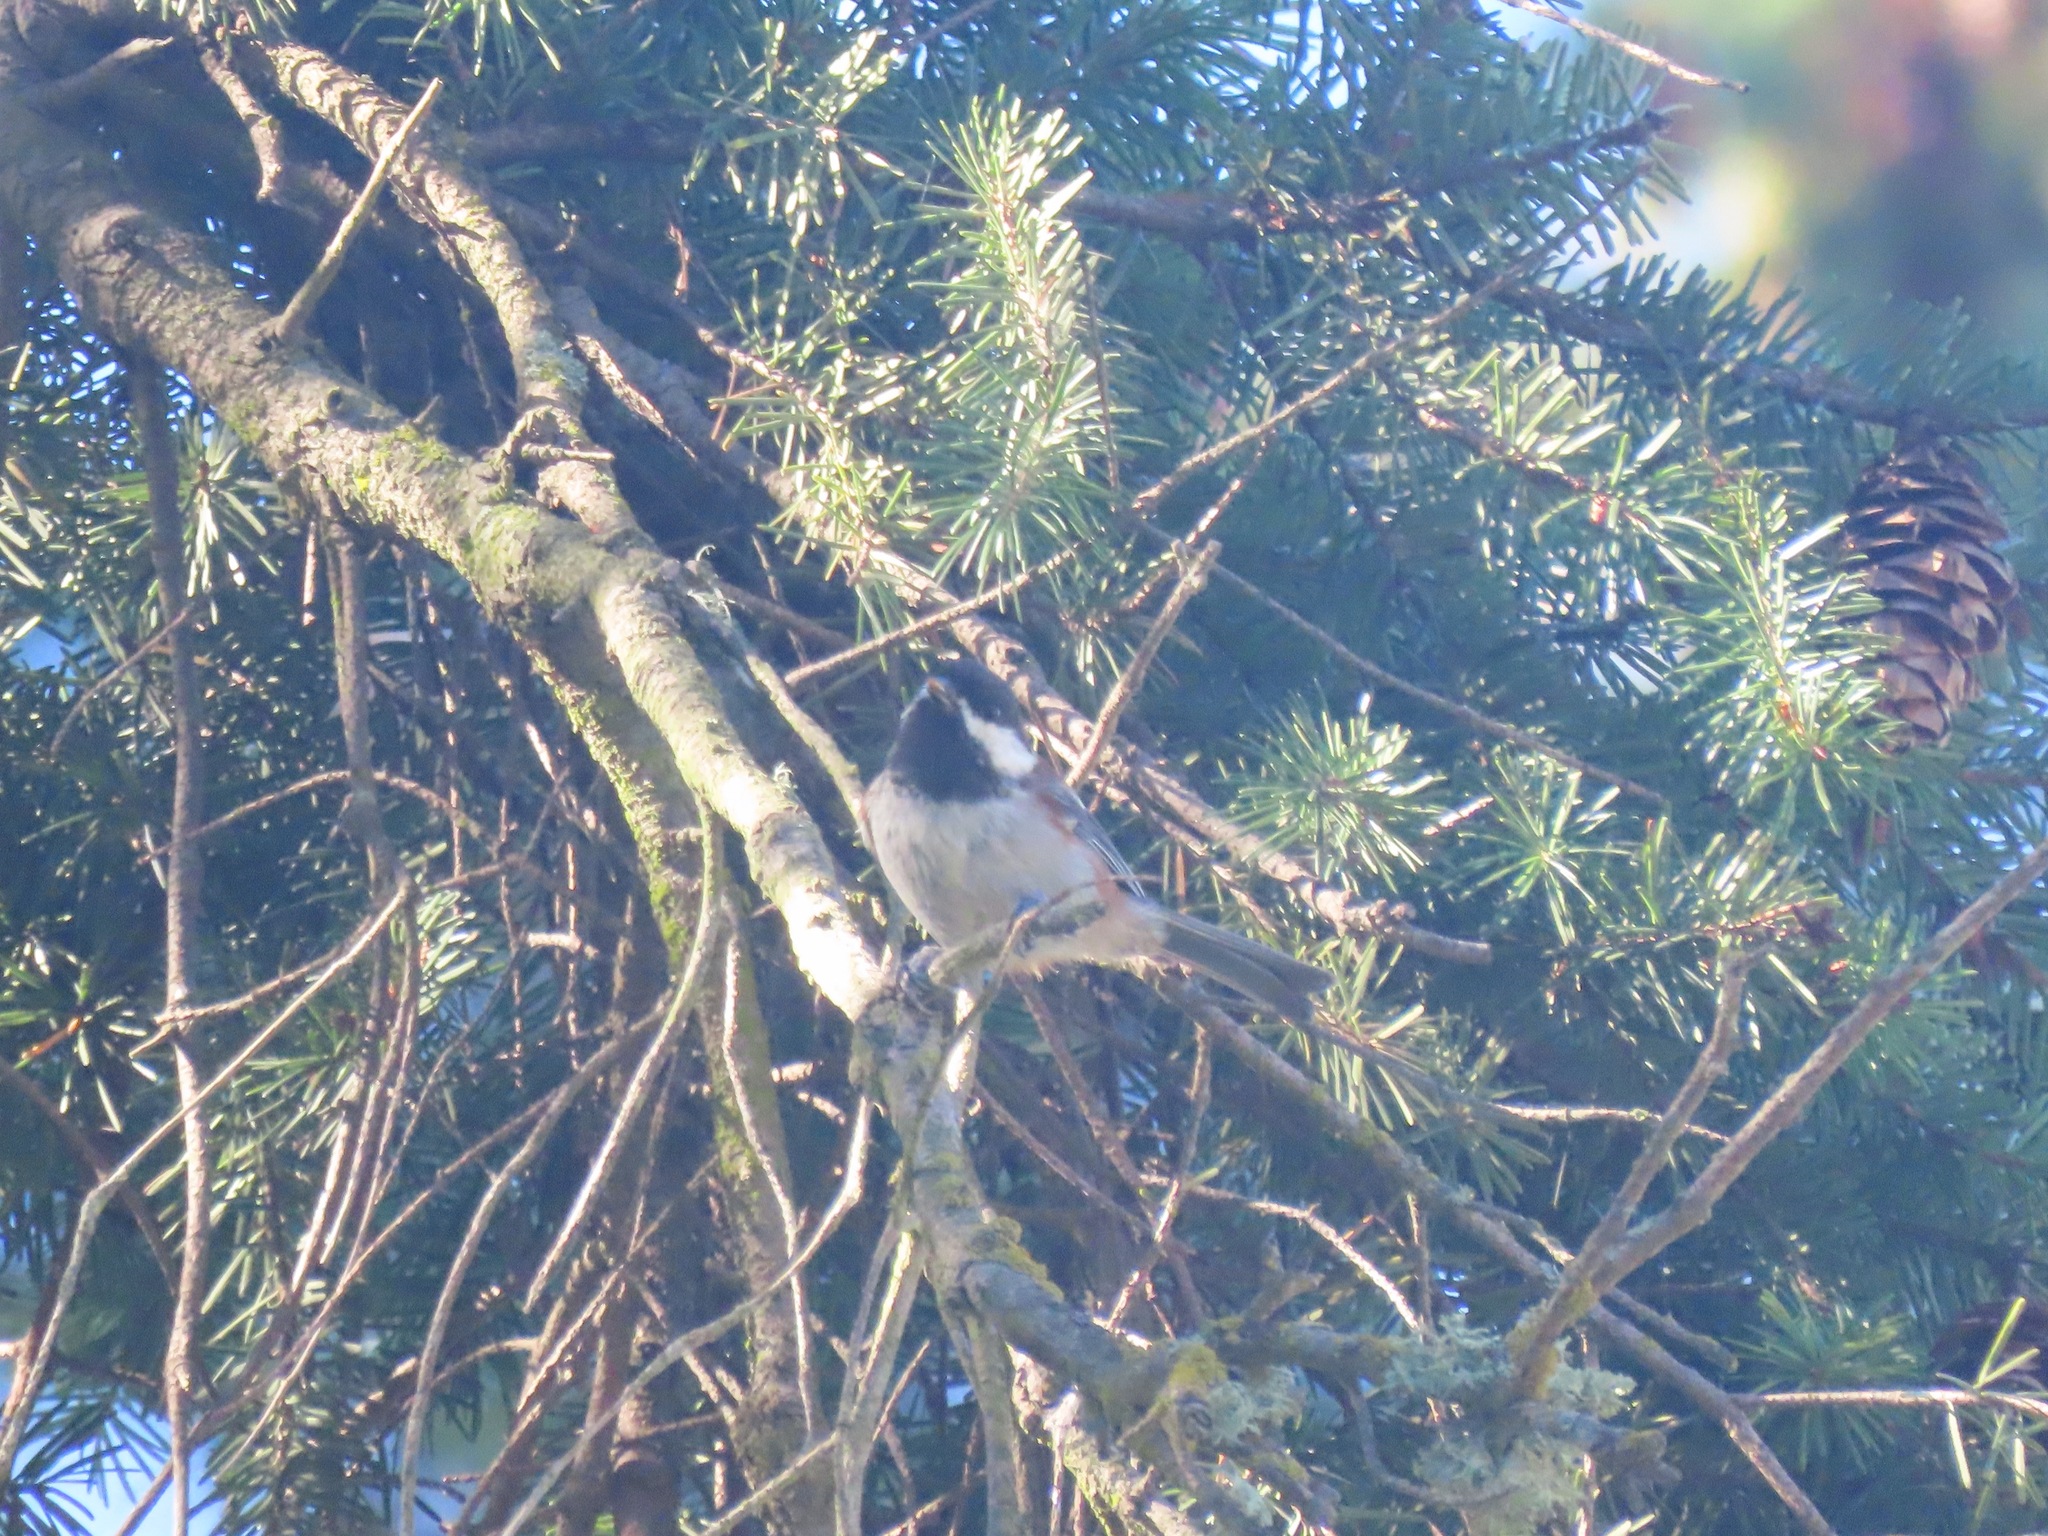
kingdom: Animalia
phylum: Chordata
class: Aves
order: Passeriformes
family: Paridae
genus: Poecile
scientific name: Poecile rufescens
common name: Chestnut-backed chickadee
